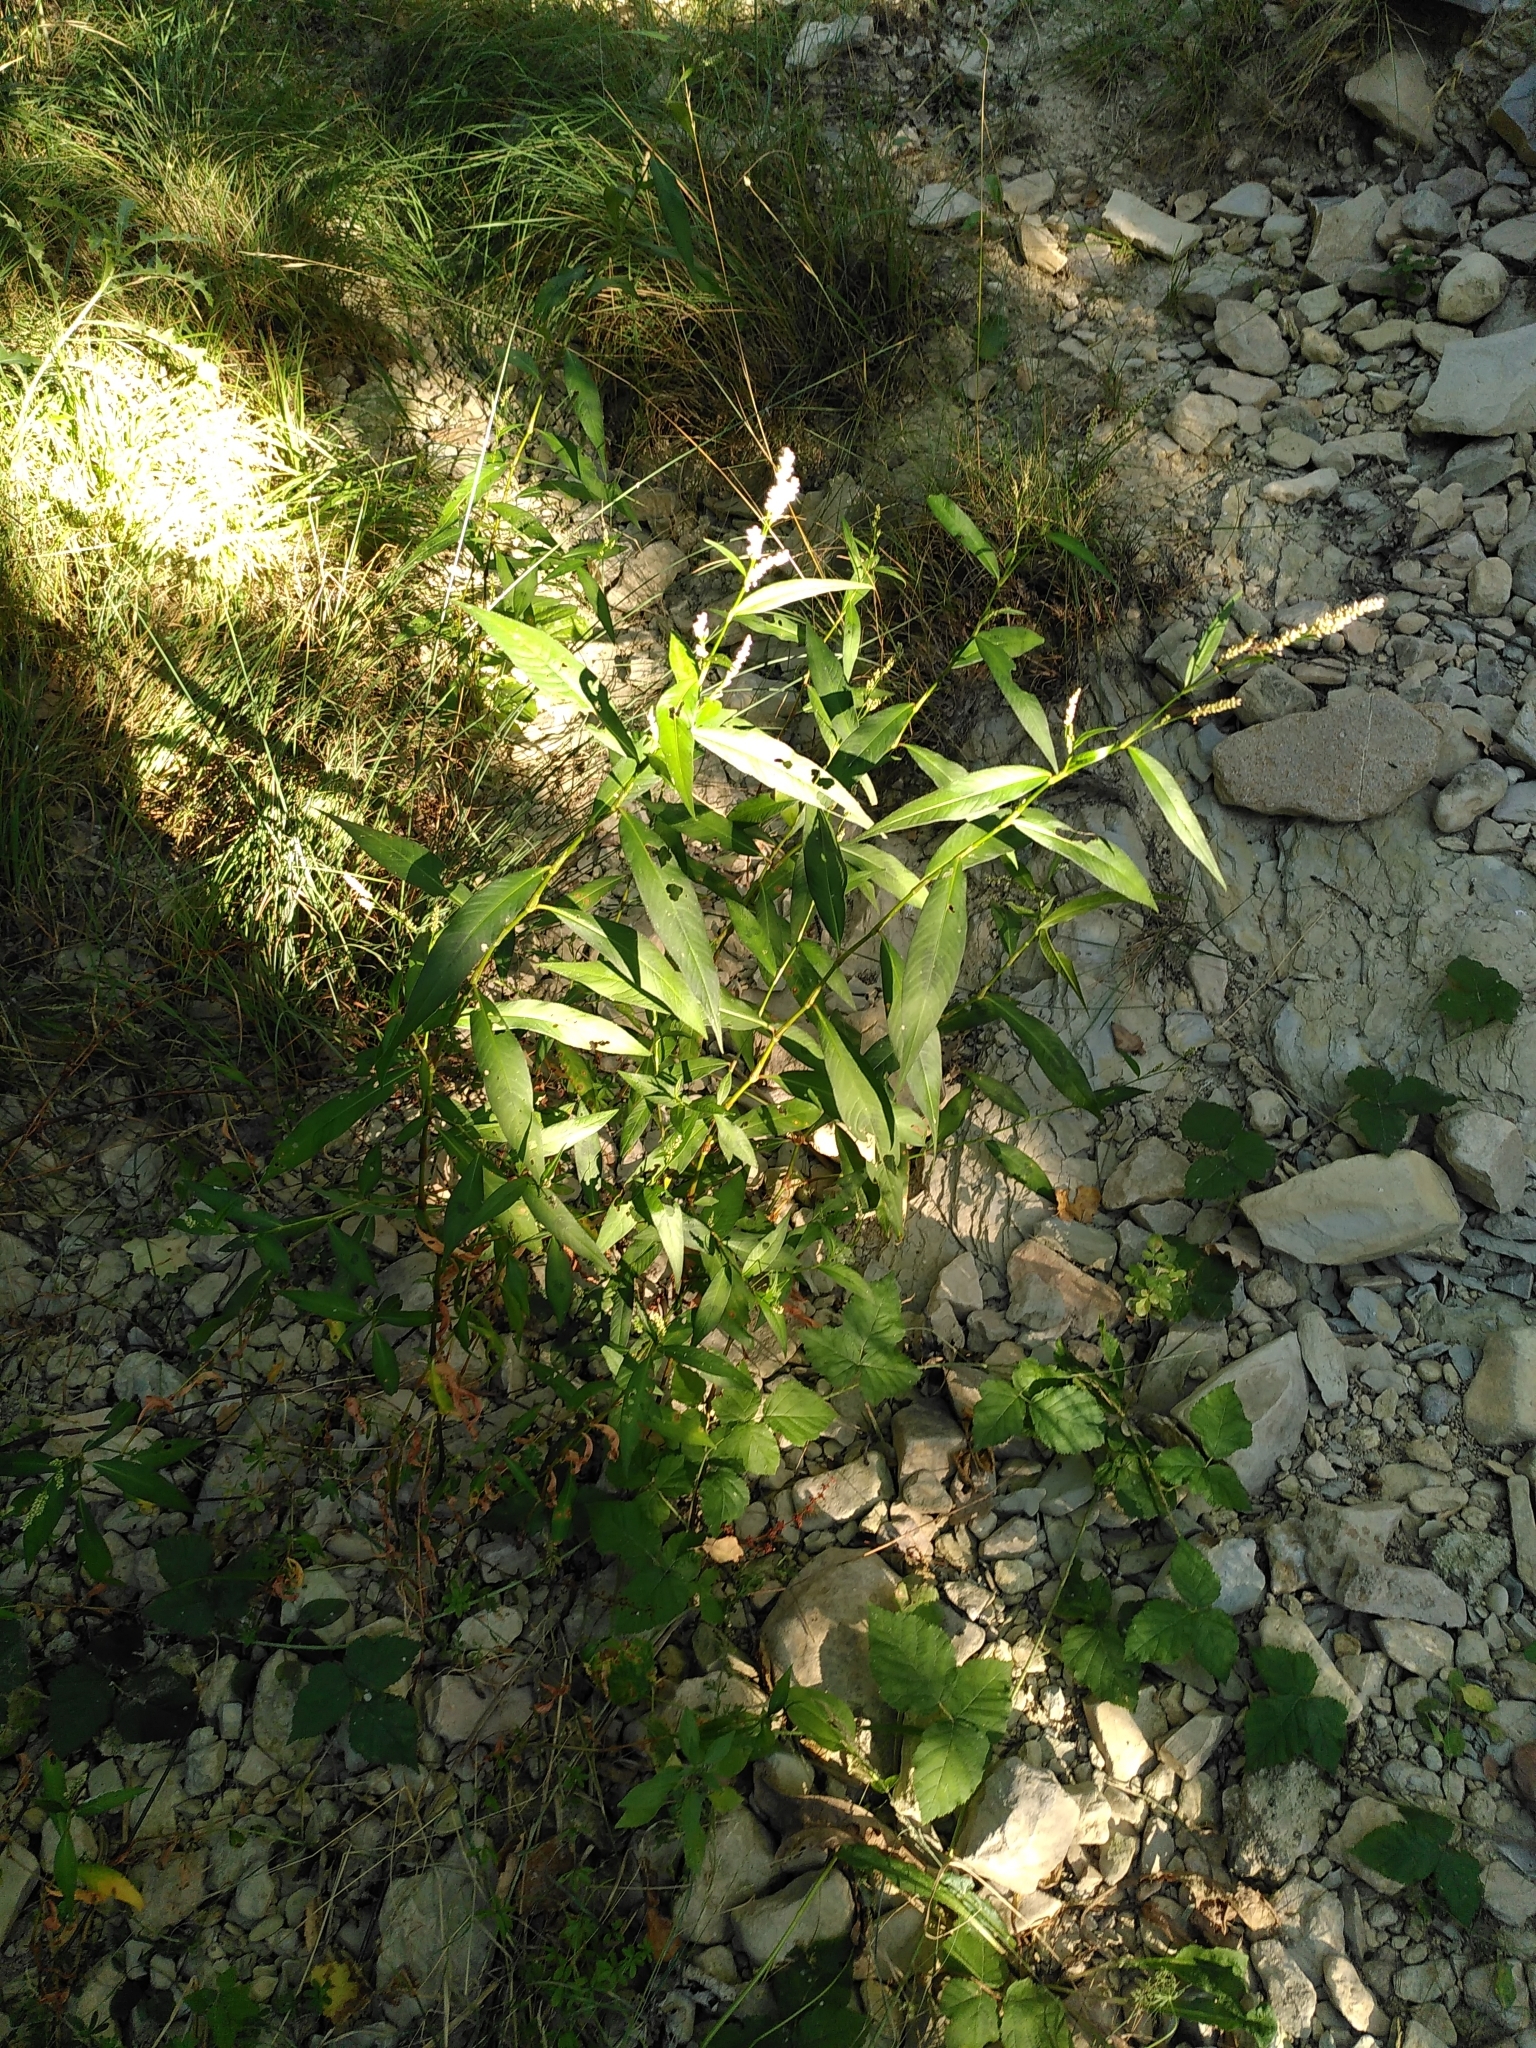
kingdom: Plantae
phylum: Tracheophyta
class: Magnoliopsida
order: Caryophyllales
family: Polygonaceae
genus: Persicaria
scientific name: Persicaria lapathifolia
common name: Curlytop knotweed
